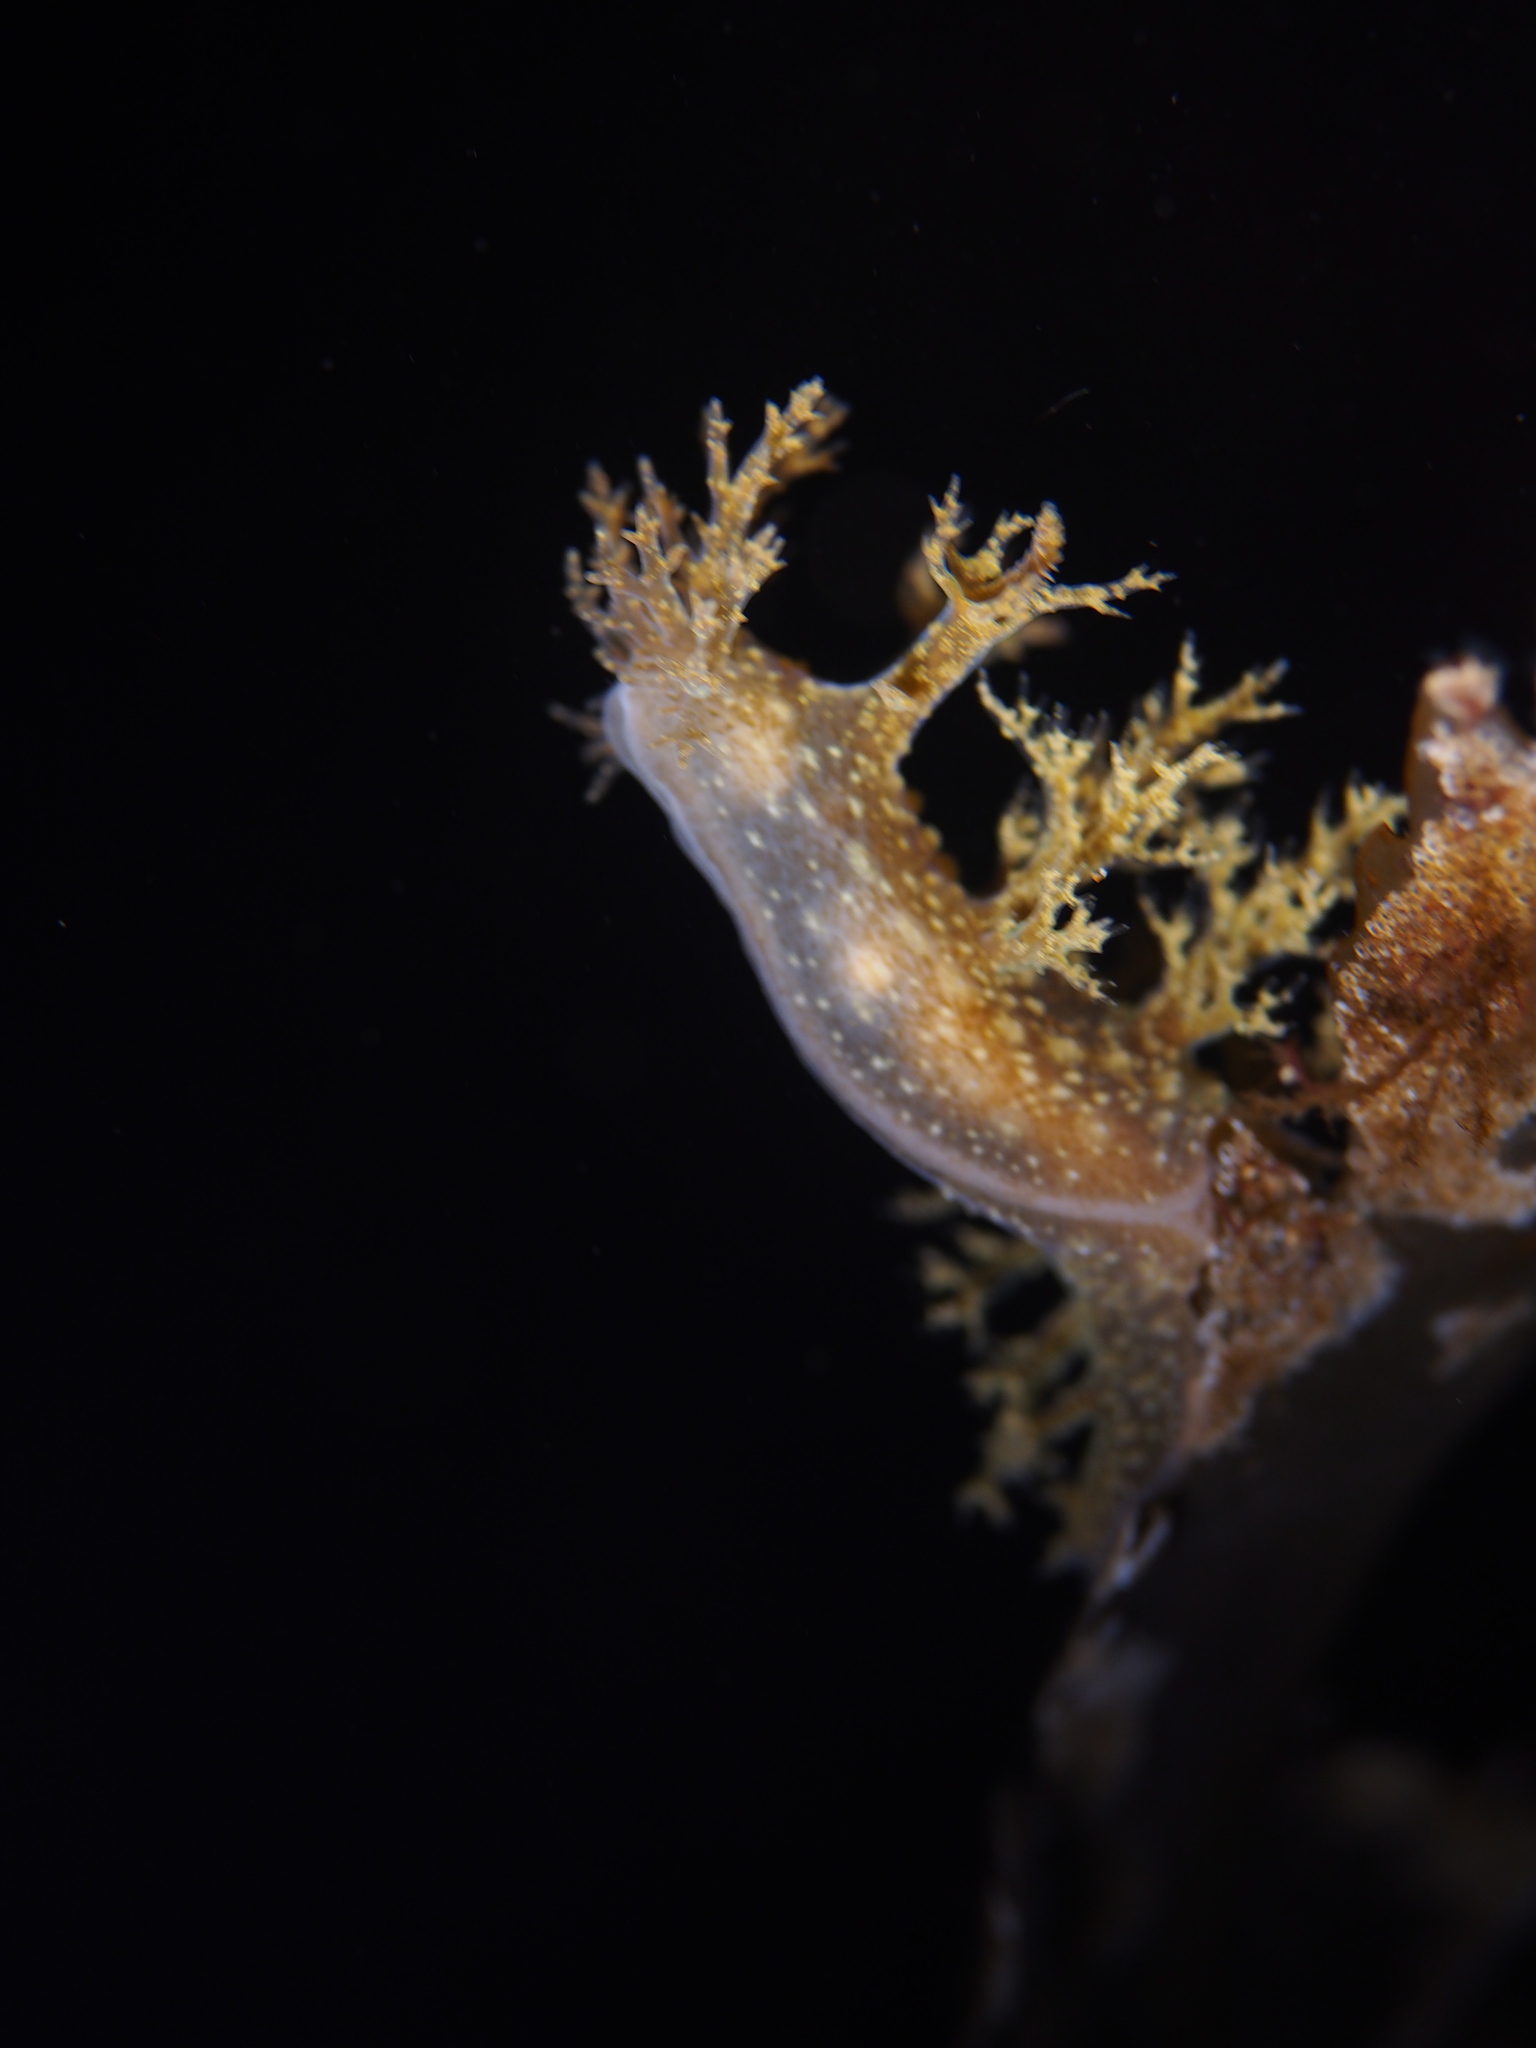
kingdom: Animalia
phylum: Mollusca
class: Gastropoda
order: Nudibranchia
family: Dendronotidae
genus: Dendronotus
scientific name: Dendronotus frondosus
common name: Bushy-backed nudibranch
